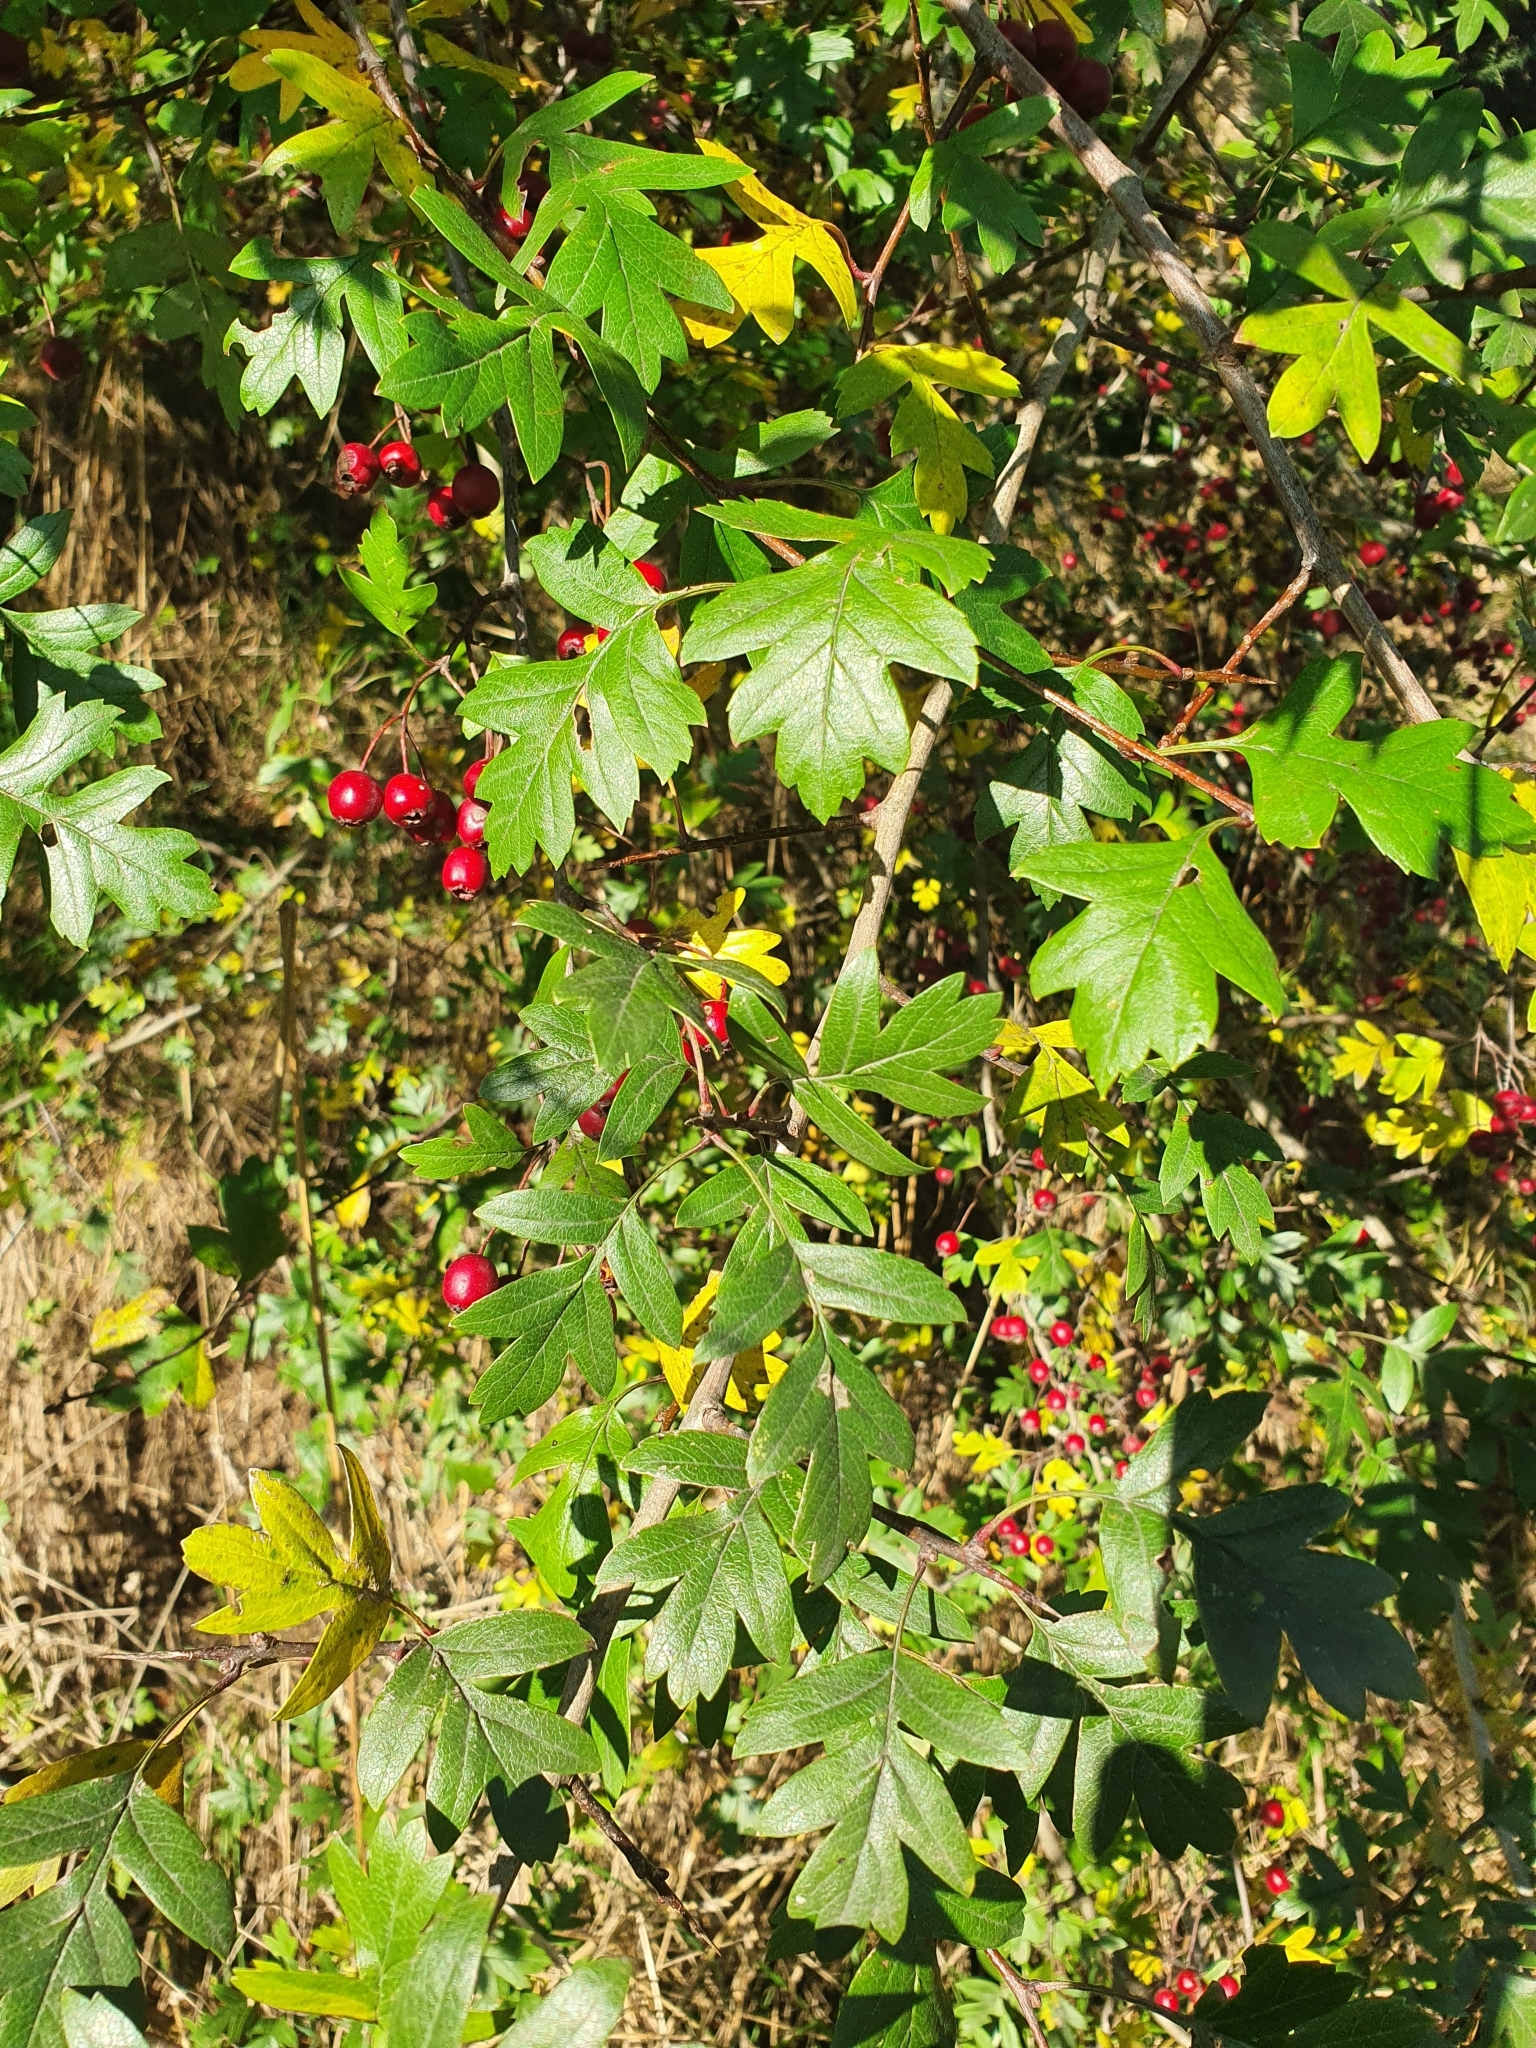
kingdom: Plantae
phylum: Tracheophyta
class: Magnoliopsida
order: Rosales
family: Rosaceae
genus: Crataegus
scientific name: Crataegus monogyna
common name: Hawthorn
